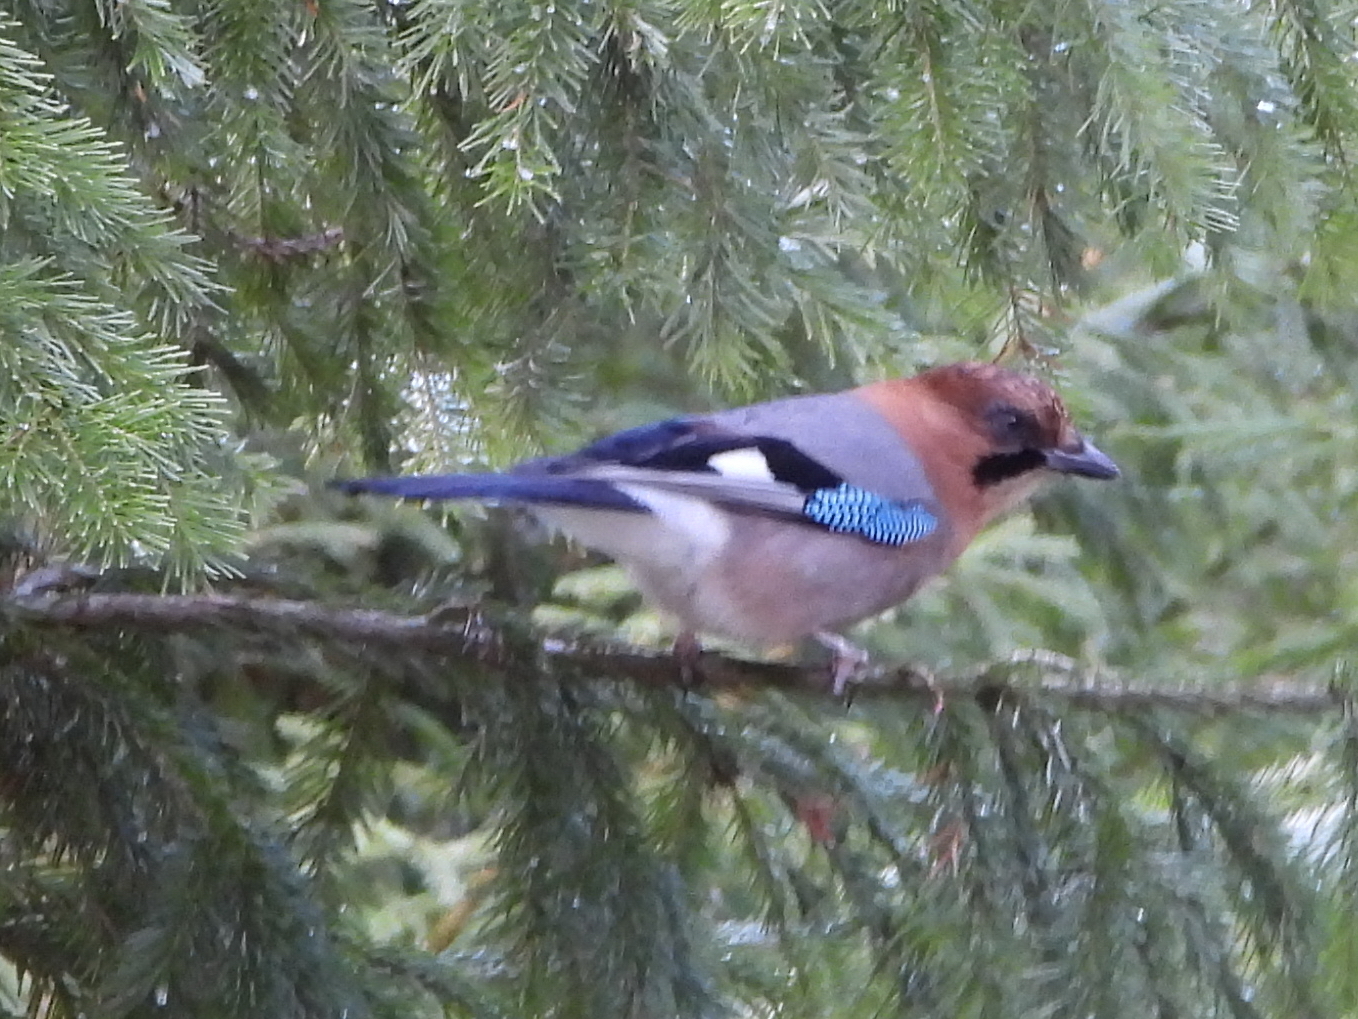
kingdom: Animalia
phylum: Chordata
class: Aves
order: Passeriformes
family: Corvidae
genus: Garrulus
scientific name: Garrulus glandarius
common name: Eurasian jay
